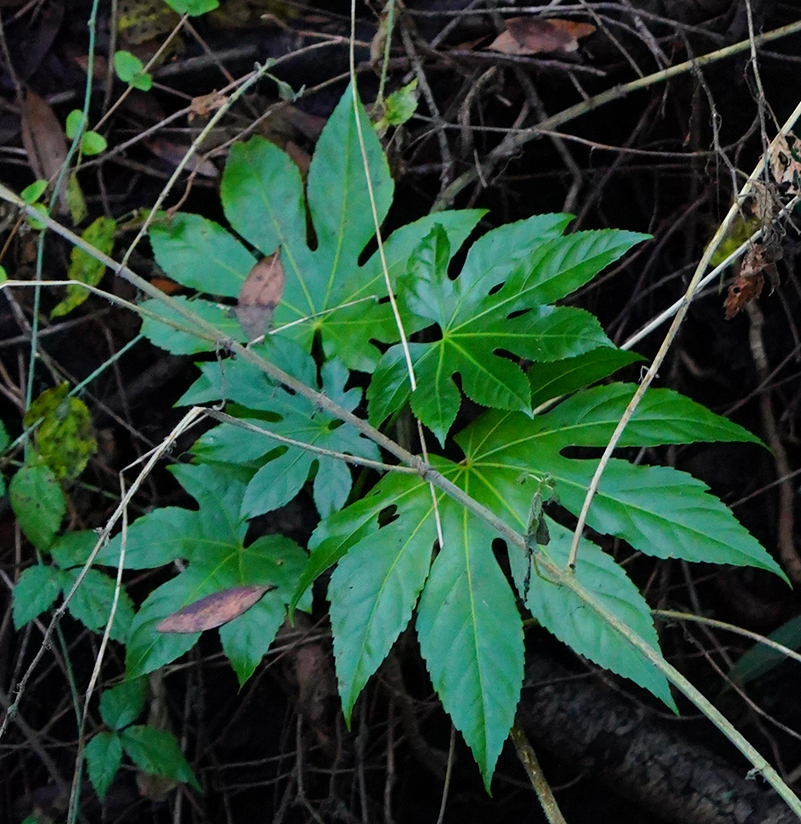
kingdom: Plantae
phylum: Tracheophyta
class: Magnoliopsida
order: Apiales
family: Araliaceae
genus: Fatsia
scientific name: Fatsia japonica
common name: Fatsia
